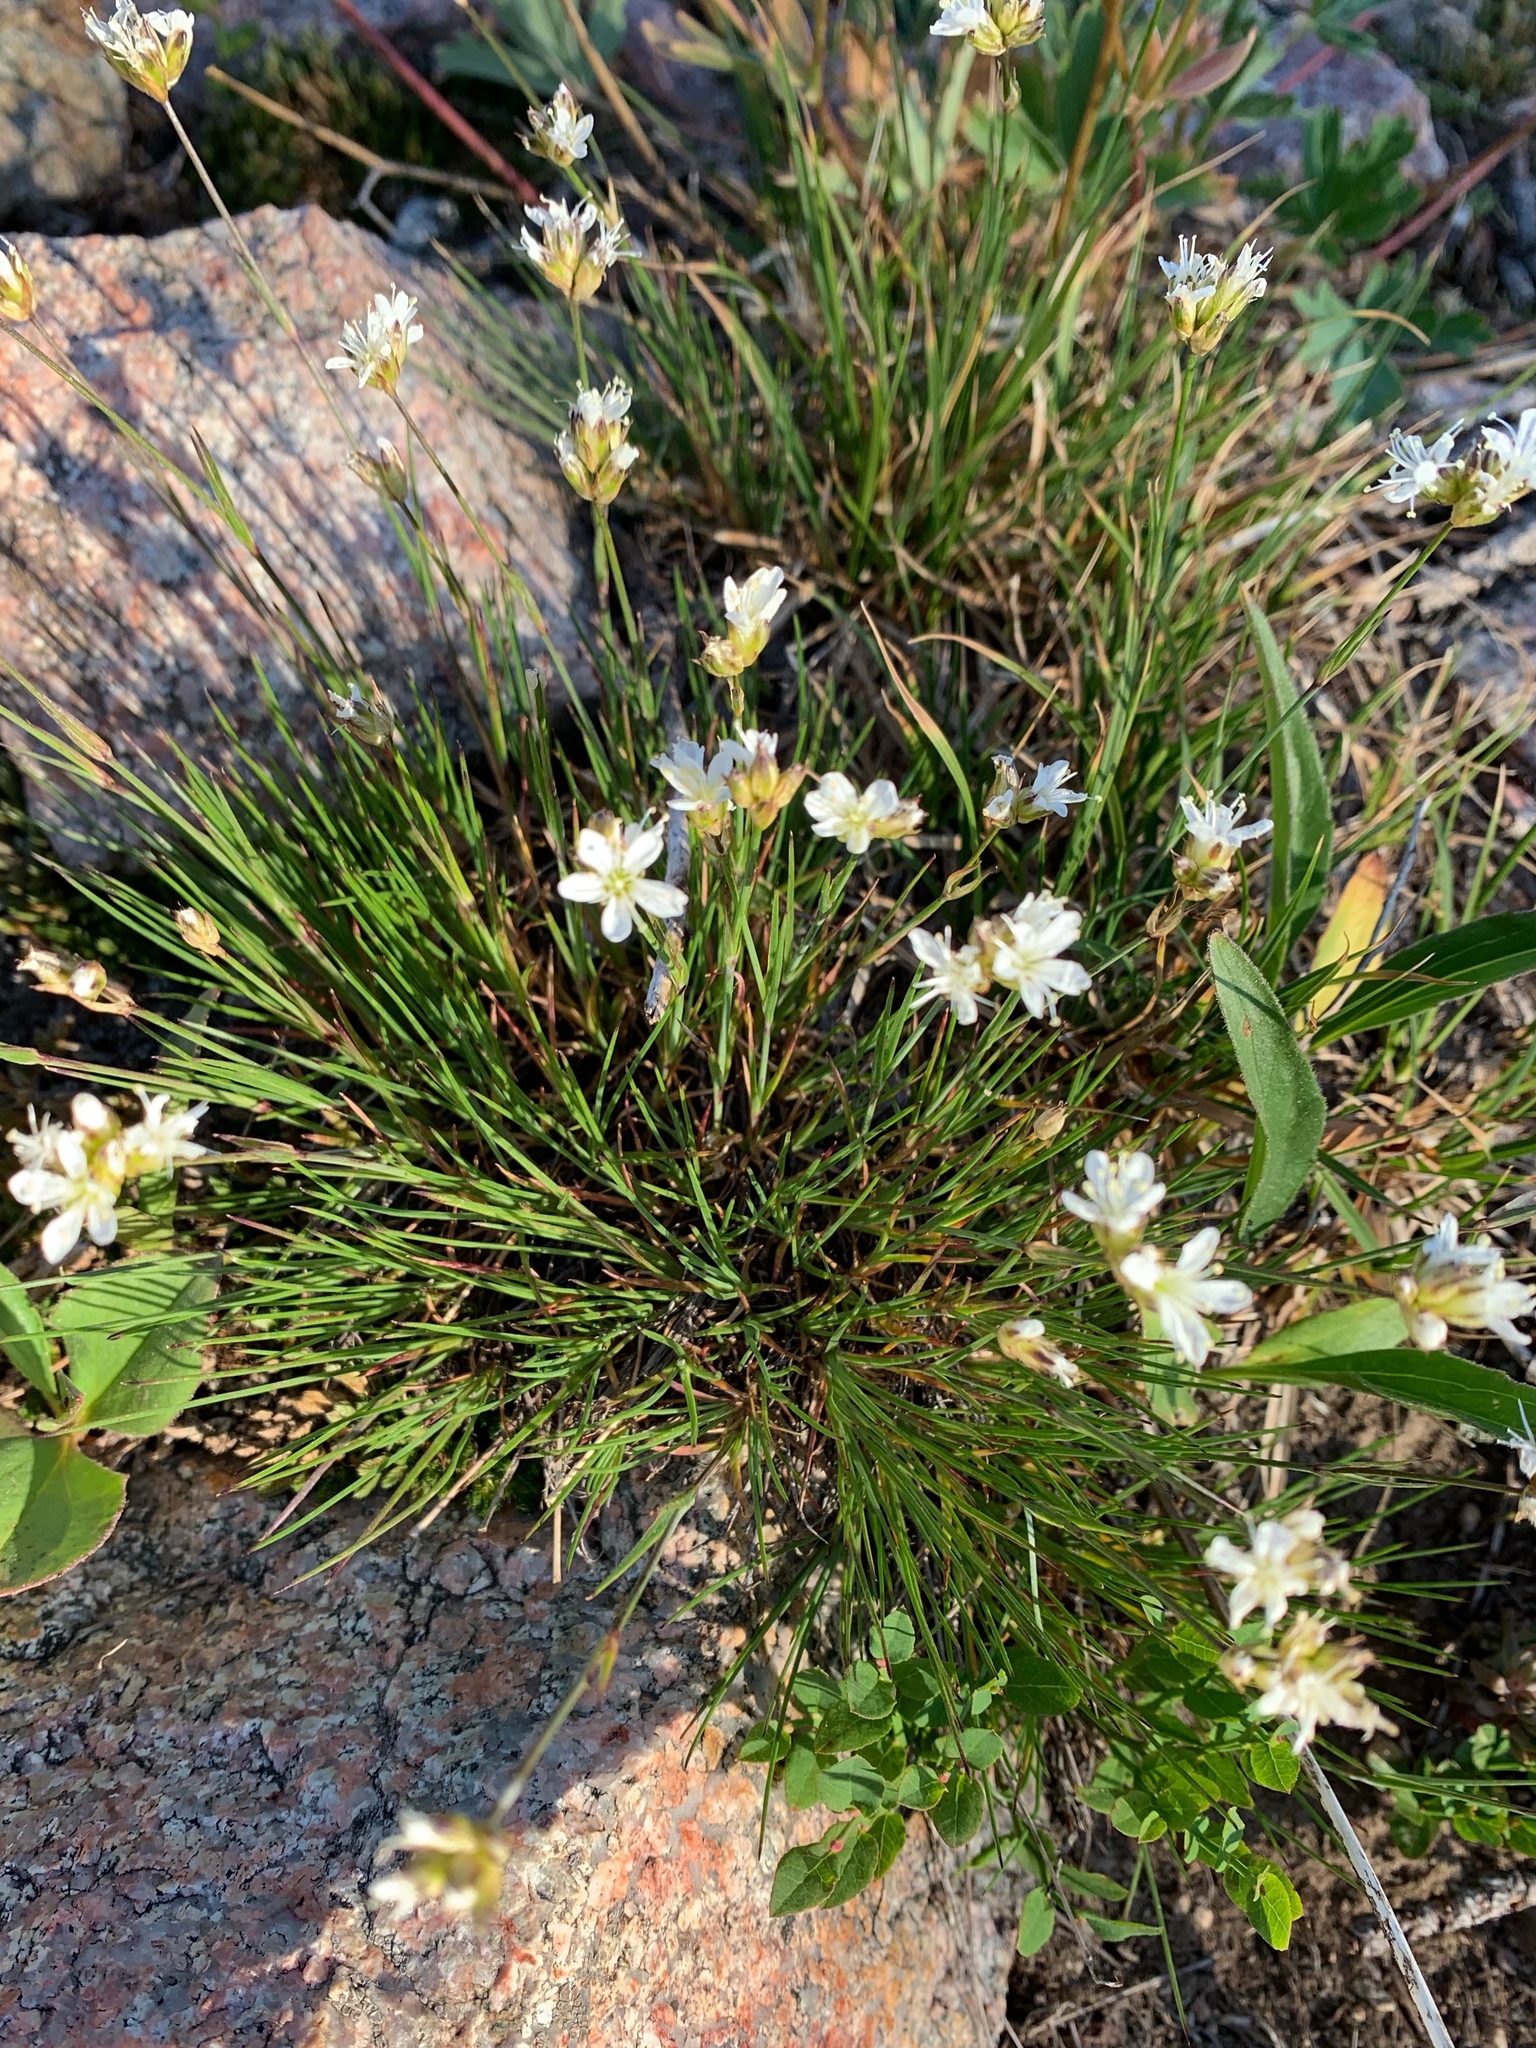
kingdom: Plantae
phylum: Tracheophyta
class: Magnoliopsida
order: Caryophyllales
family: Caryophyllaceae
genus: Eremogone
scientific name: Eremogone congesta
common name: Ballhead sandwort
